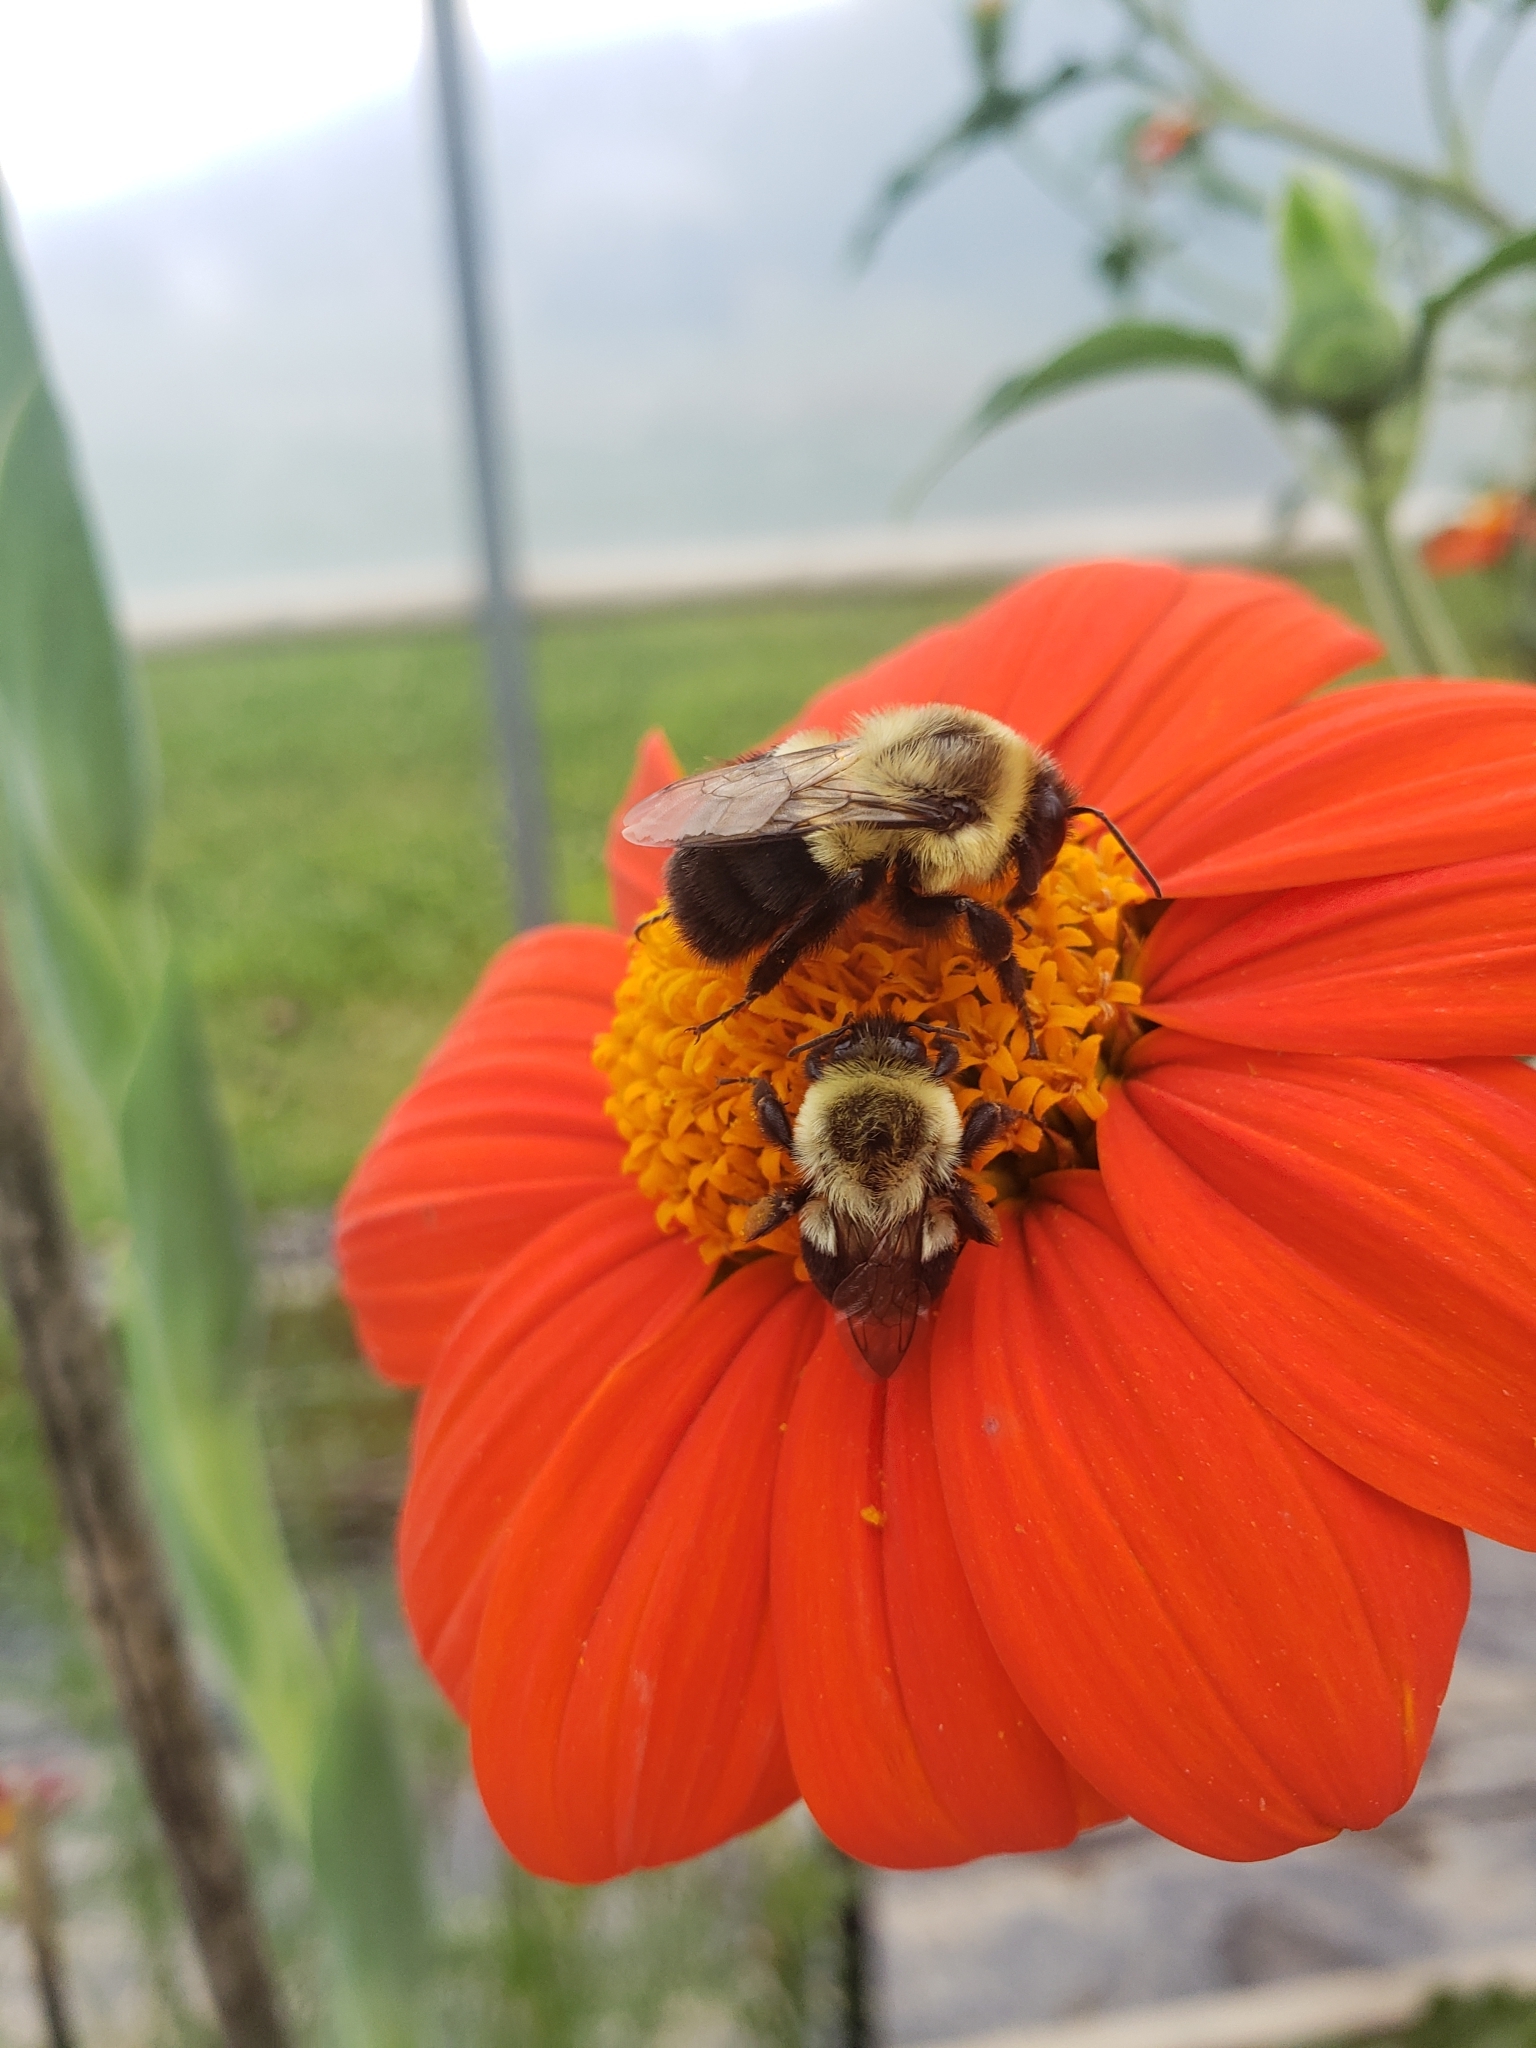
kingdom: Animalia
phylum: Arthropoda
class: Insecta
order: Hymenoptera
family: Apidae
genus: Bombus
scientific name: Bombus impatiens
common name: Common eastern bumble bee
